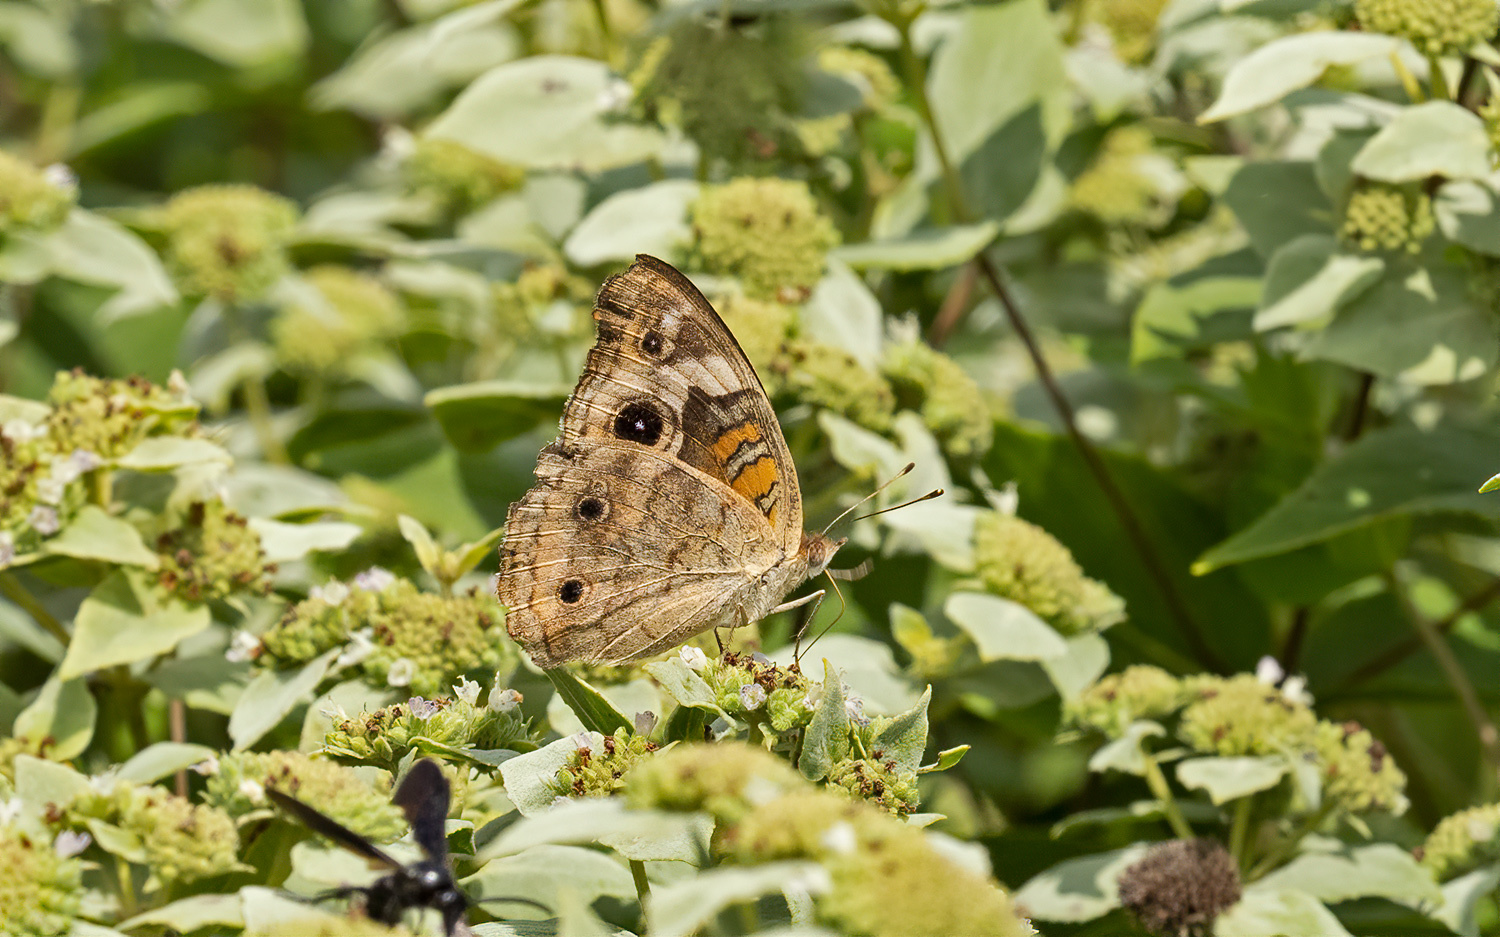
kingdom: Animalia
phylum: Arthropoda
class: Insecta
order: Lepidoptera
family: Nymphalidae
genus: Junonia
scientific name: Junonia coenia
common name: Common buckeye
